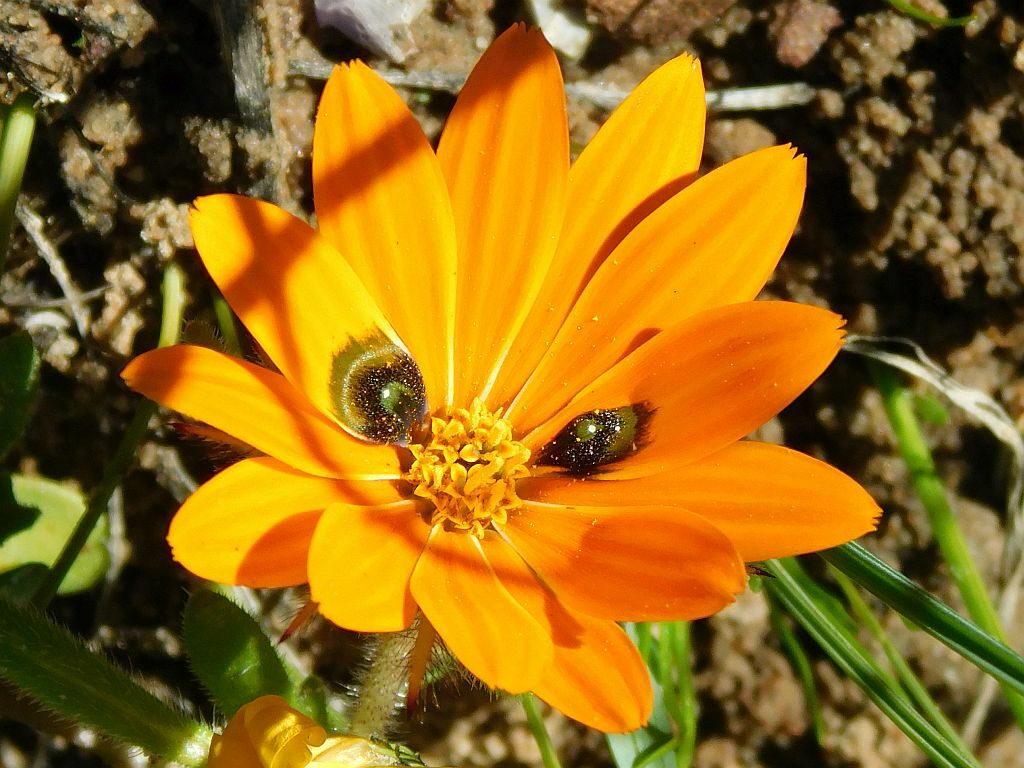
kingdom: Plantae
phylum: Tracheophyta
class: Magnoliopsida
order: Asterales
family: Asteraceae
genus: Gorteria
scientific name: Gorteria diffusa
